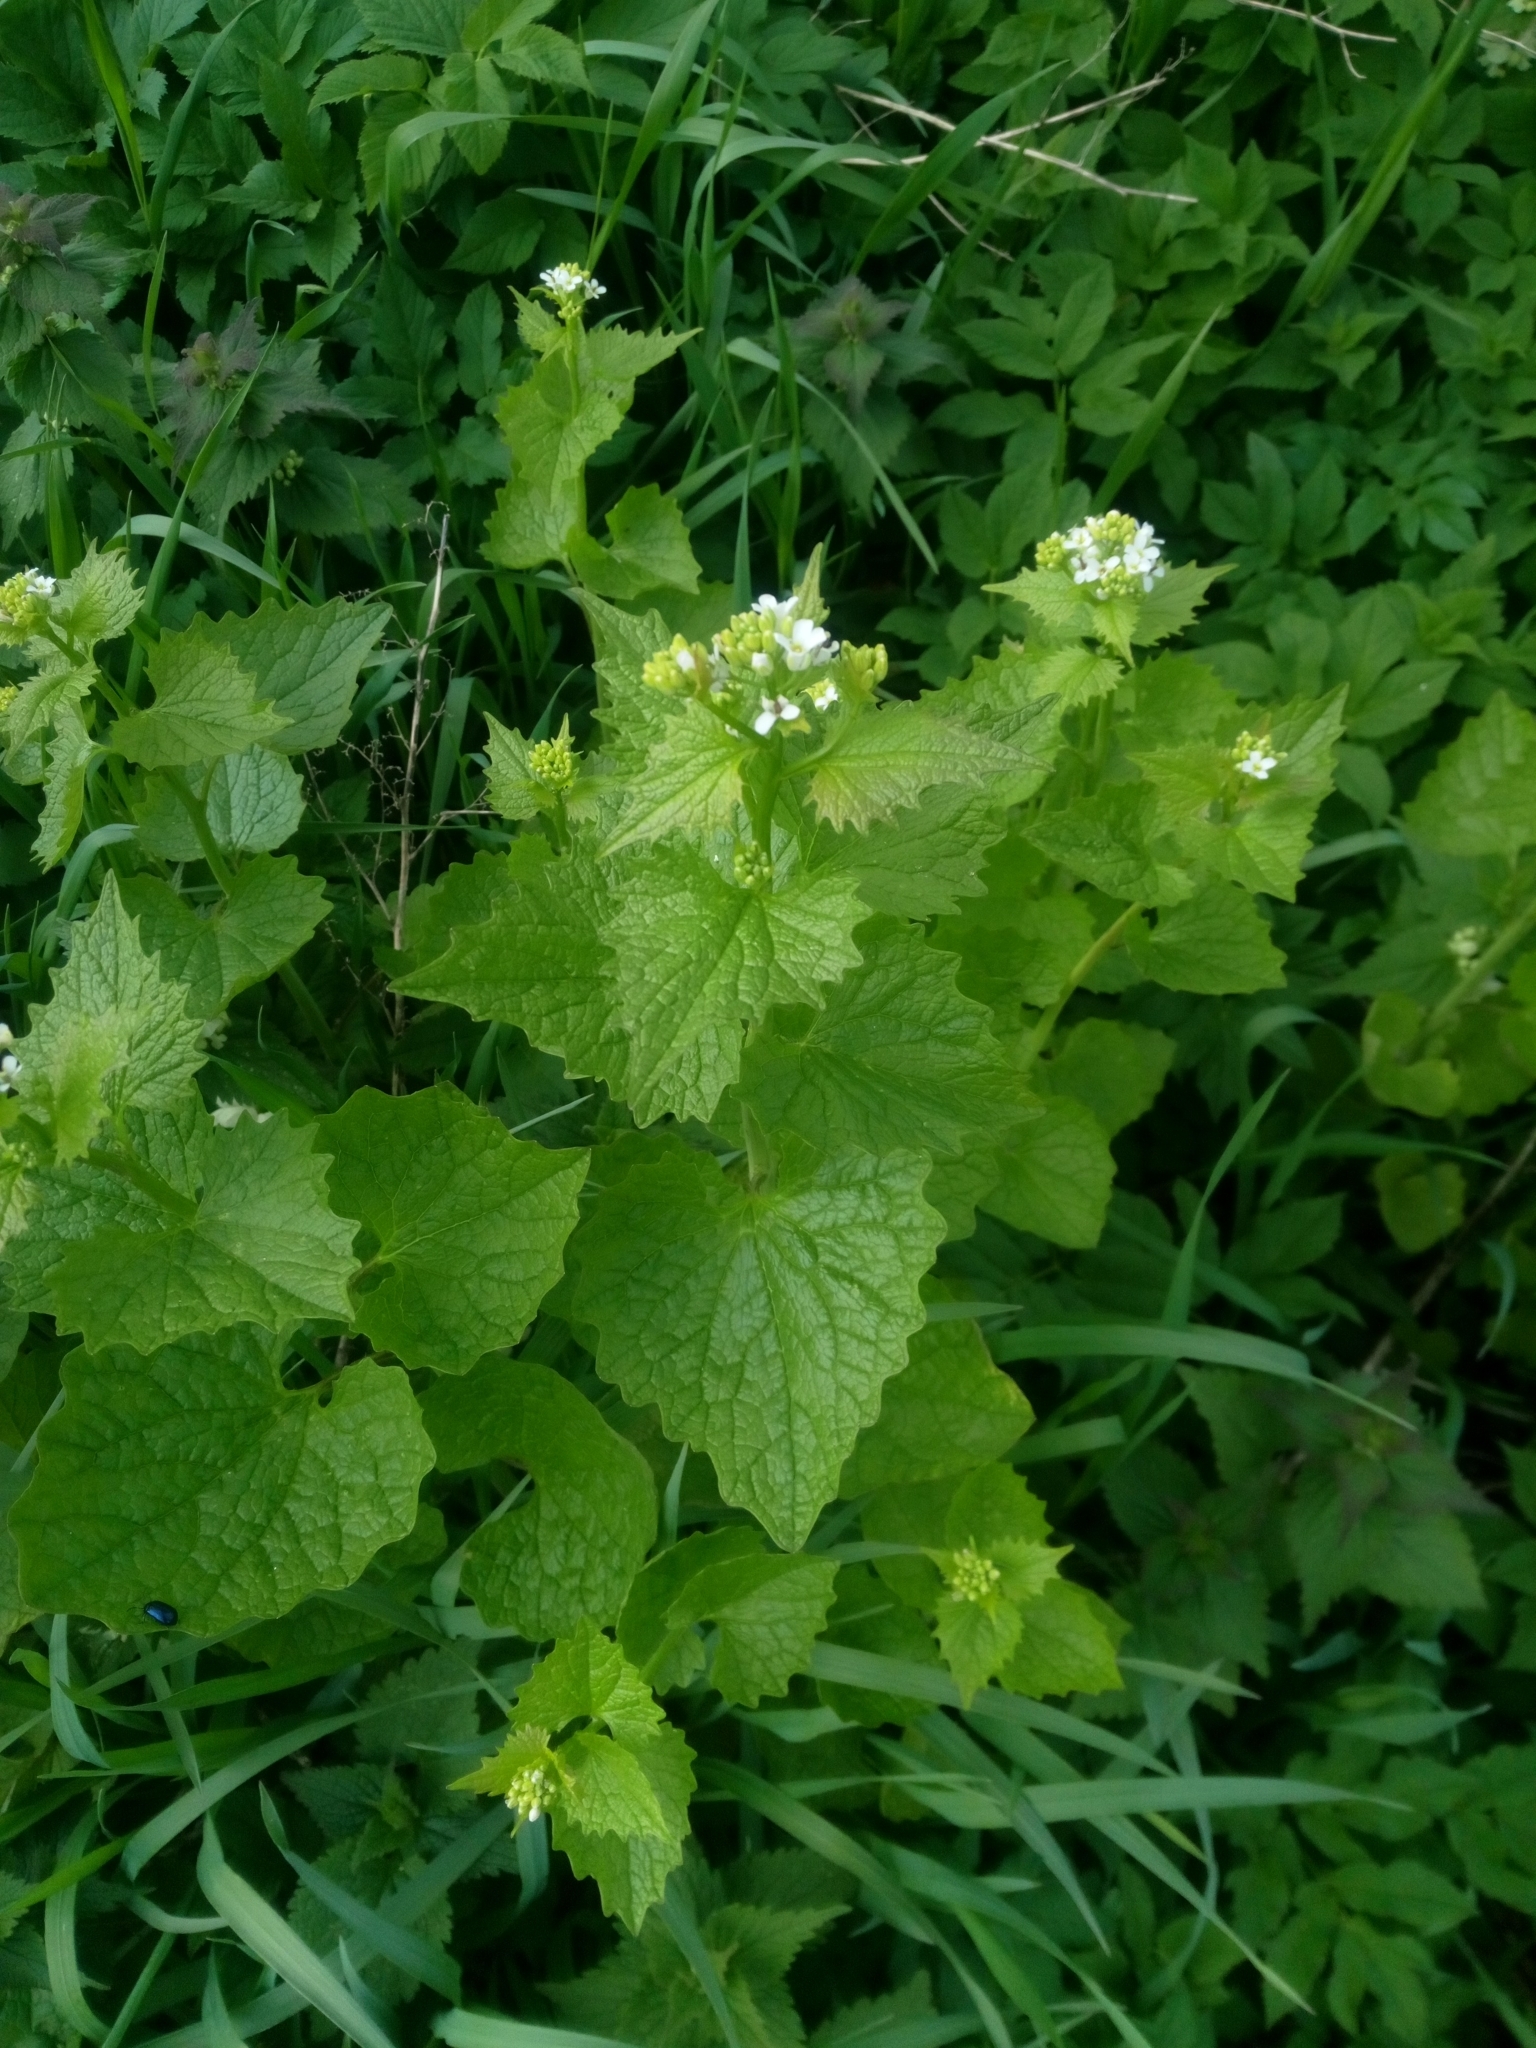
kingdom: Plantae
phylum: Tracheophyta
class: Magnoliopsida
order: Brassicales
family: Brassicaceae
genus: Alliaria
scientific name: Alliaria petiolata
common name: Garlic mustard
